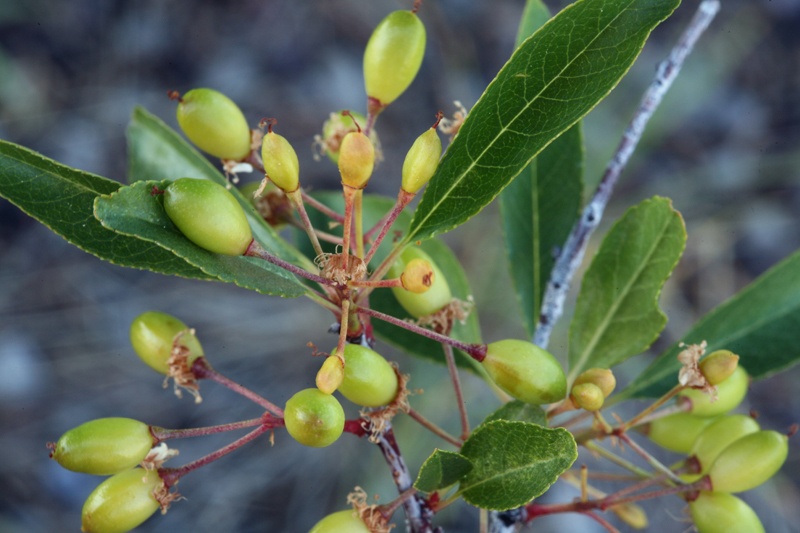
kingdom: Plantae
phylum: Tracheophyta
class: Magnoliopsida
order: Rosales
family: Rosaceae
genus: Prunus
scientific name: Prunus emarginata
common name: Bitter cherry
